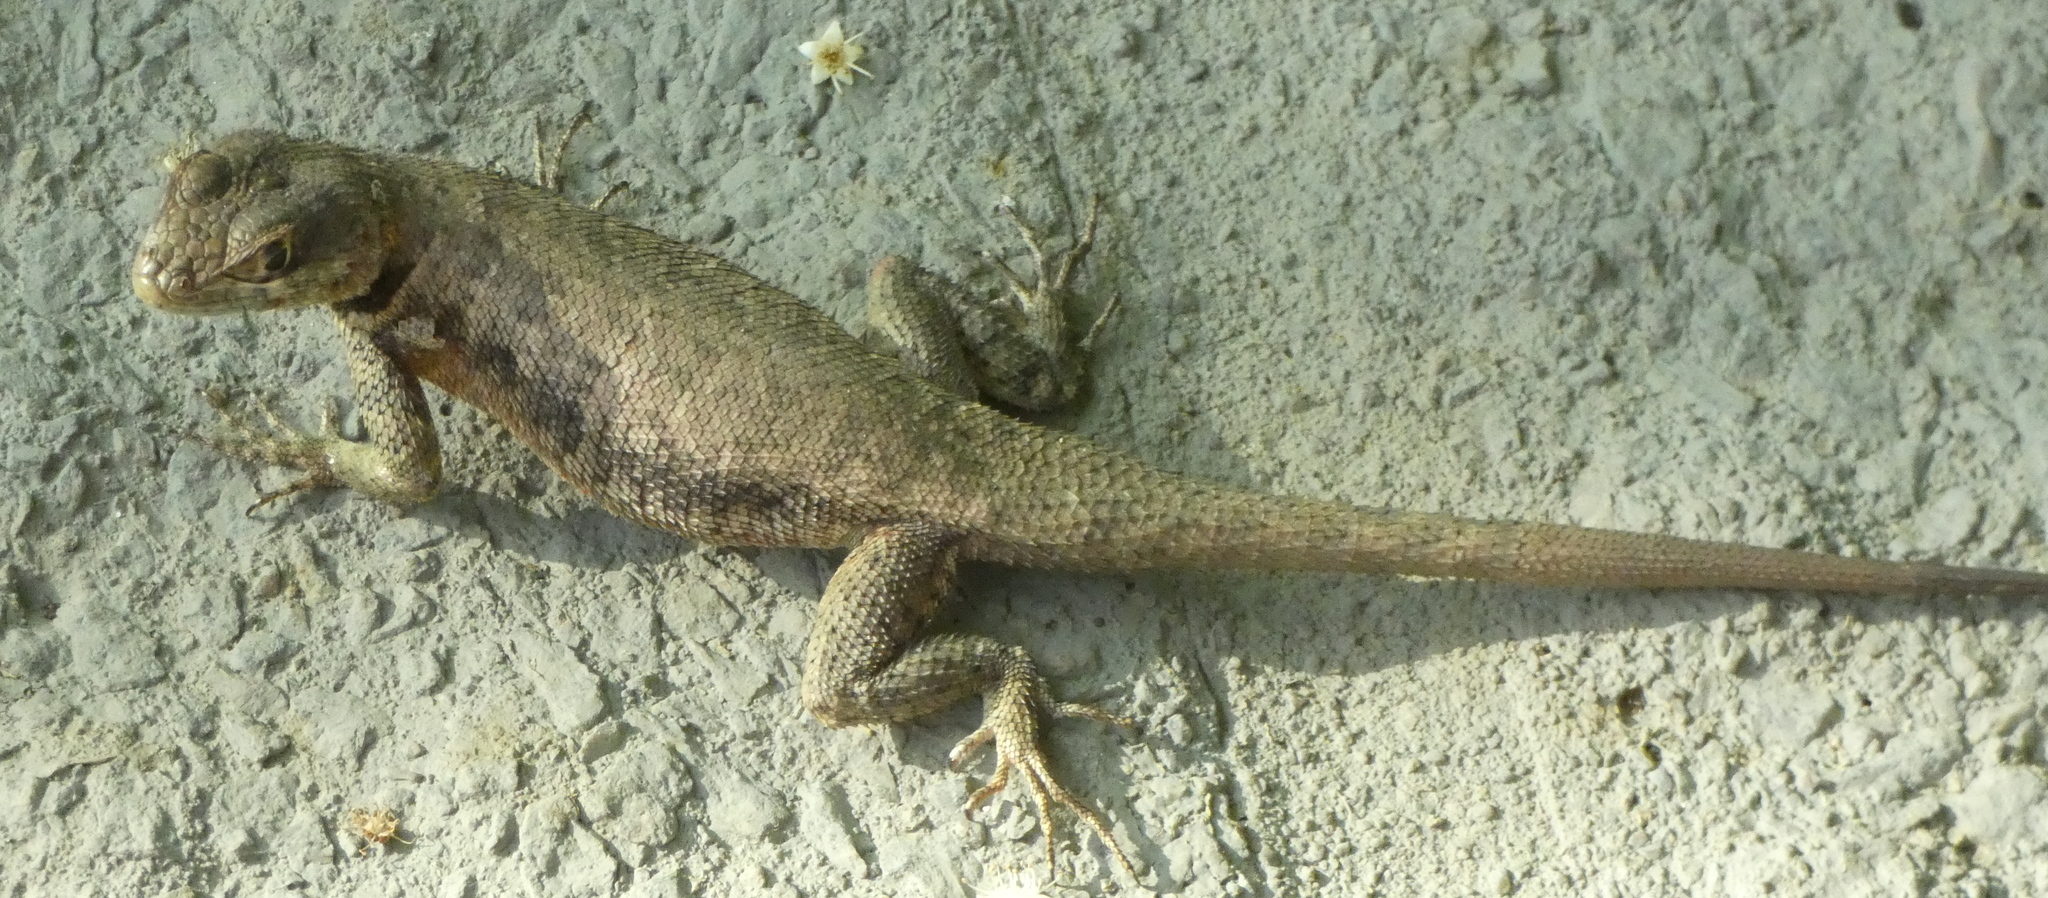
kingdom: Animalia
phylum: Chordata
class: Squamata
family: Tropiduridae
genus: Tropidurus
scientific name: Tropidurus hispidus
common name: Peters' lava lizard
